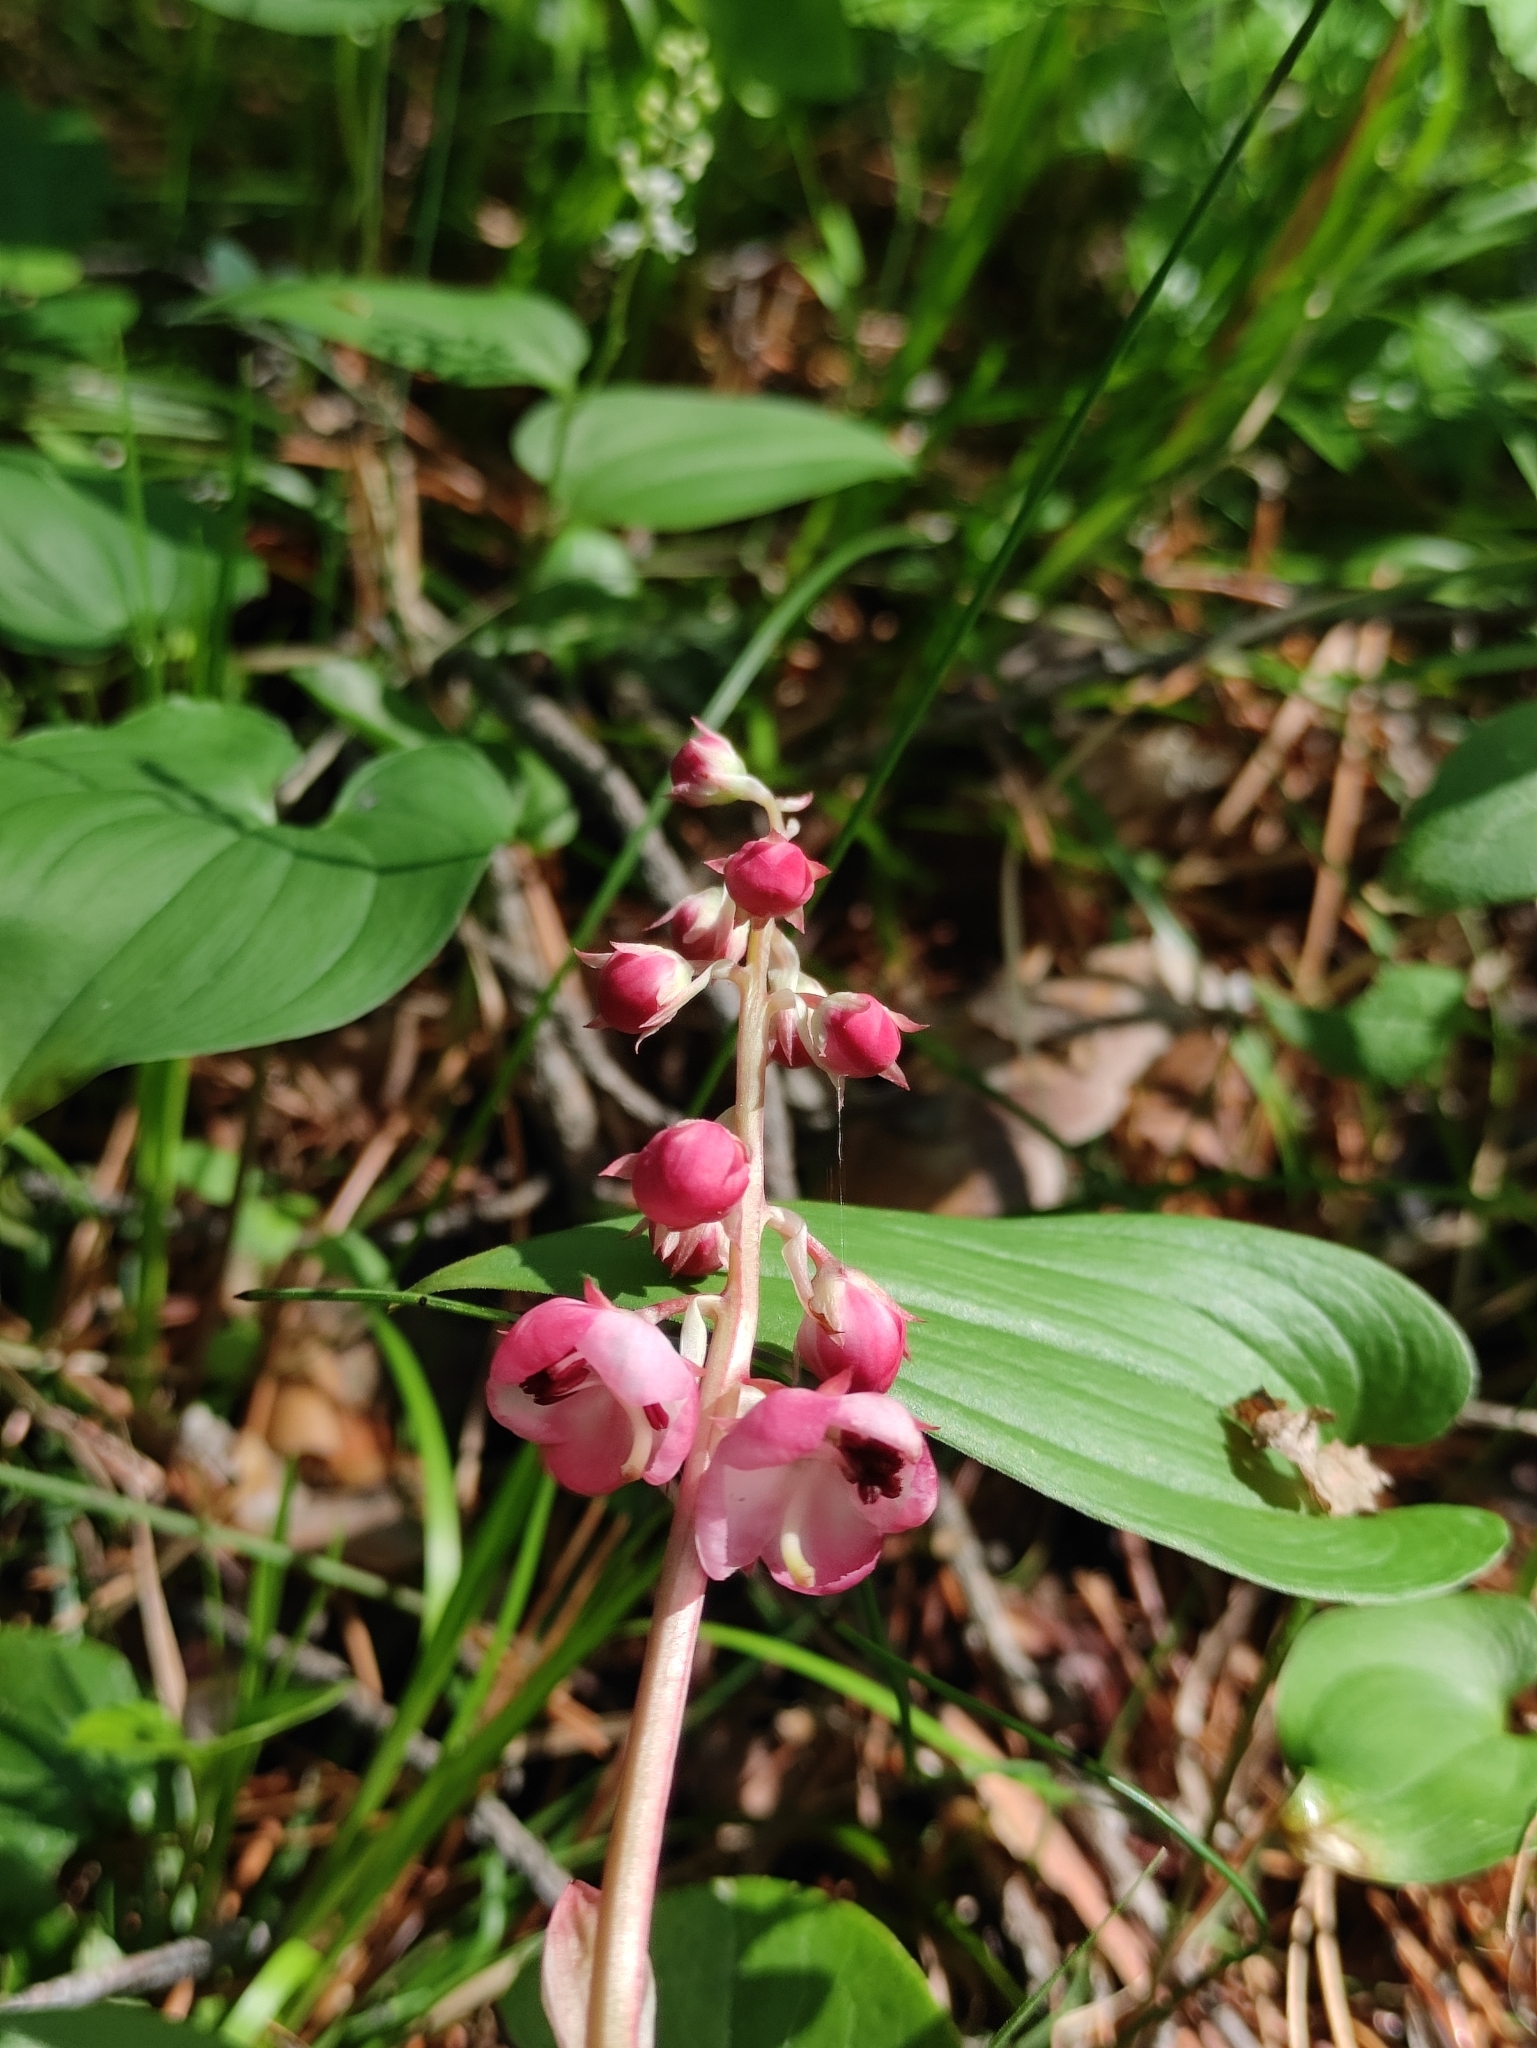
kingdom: Plantae
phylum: Tracheophyta
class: Magnoliopsida
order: Ericales
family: Ericaceae
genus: Pyrola
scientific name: Pyrola asarifolia
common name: Bog wintergreen
